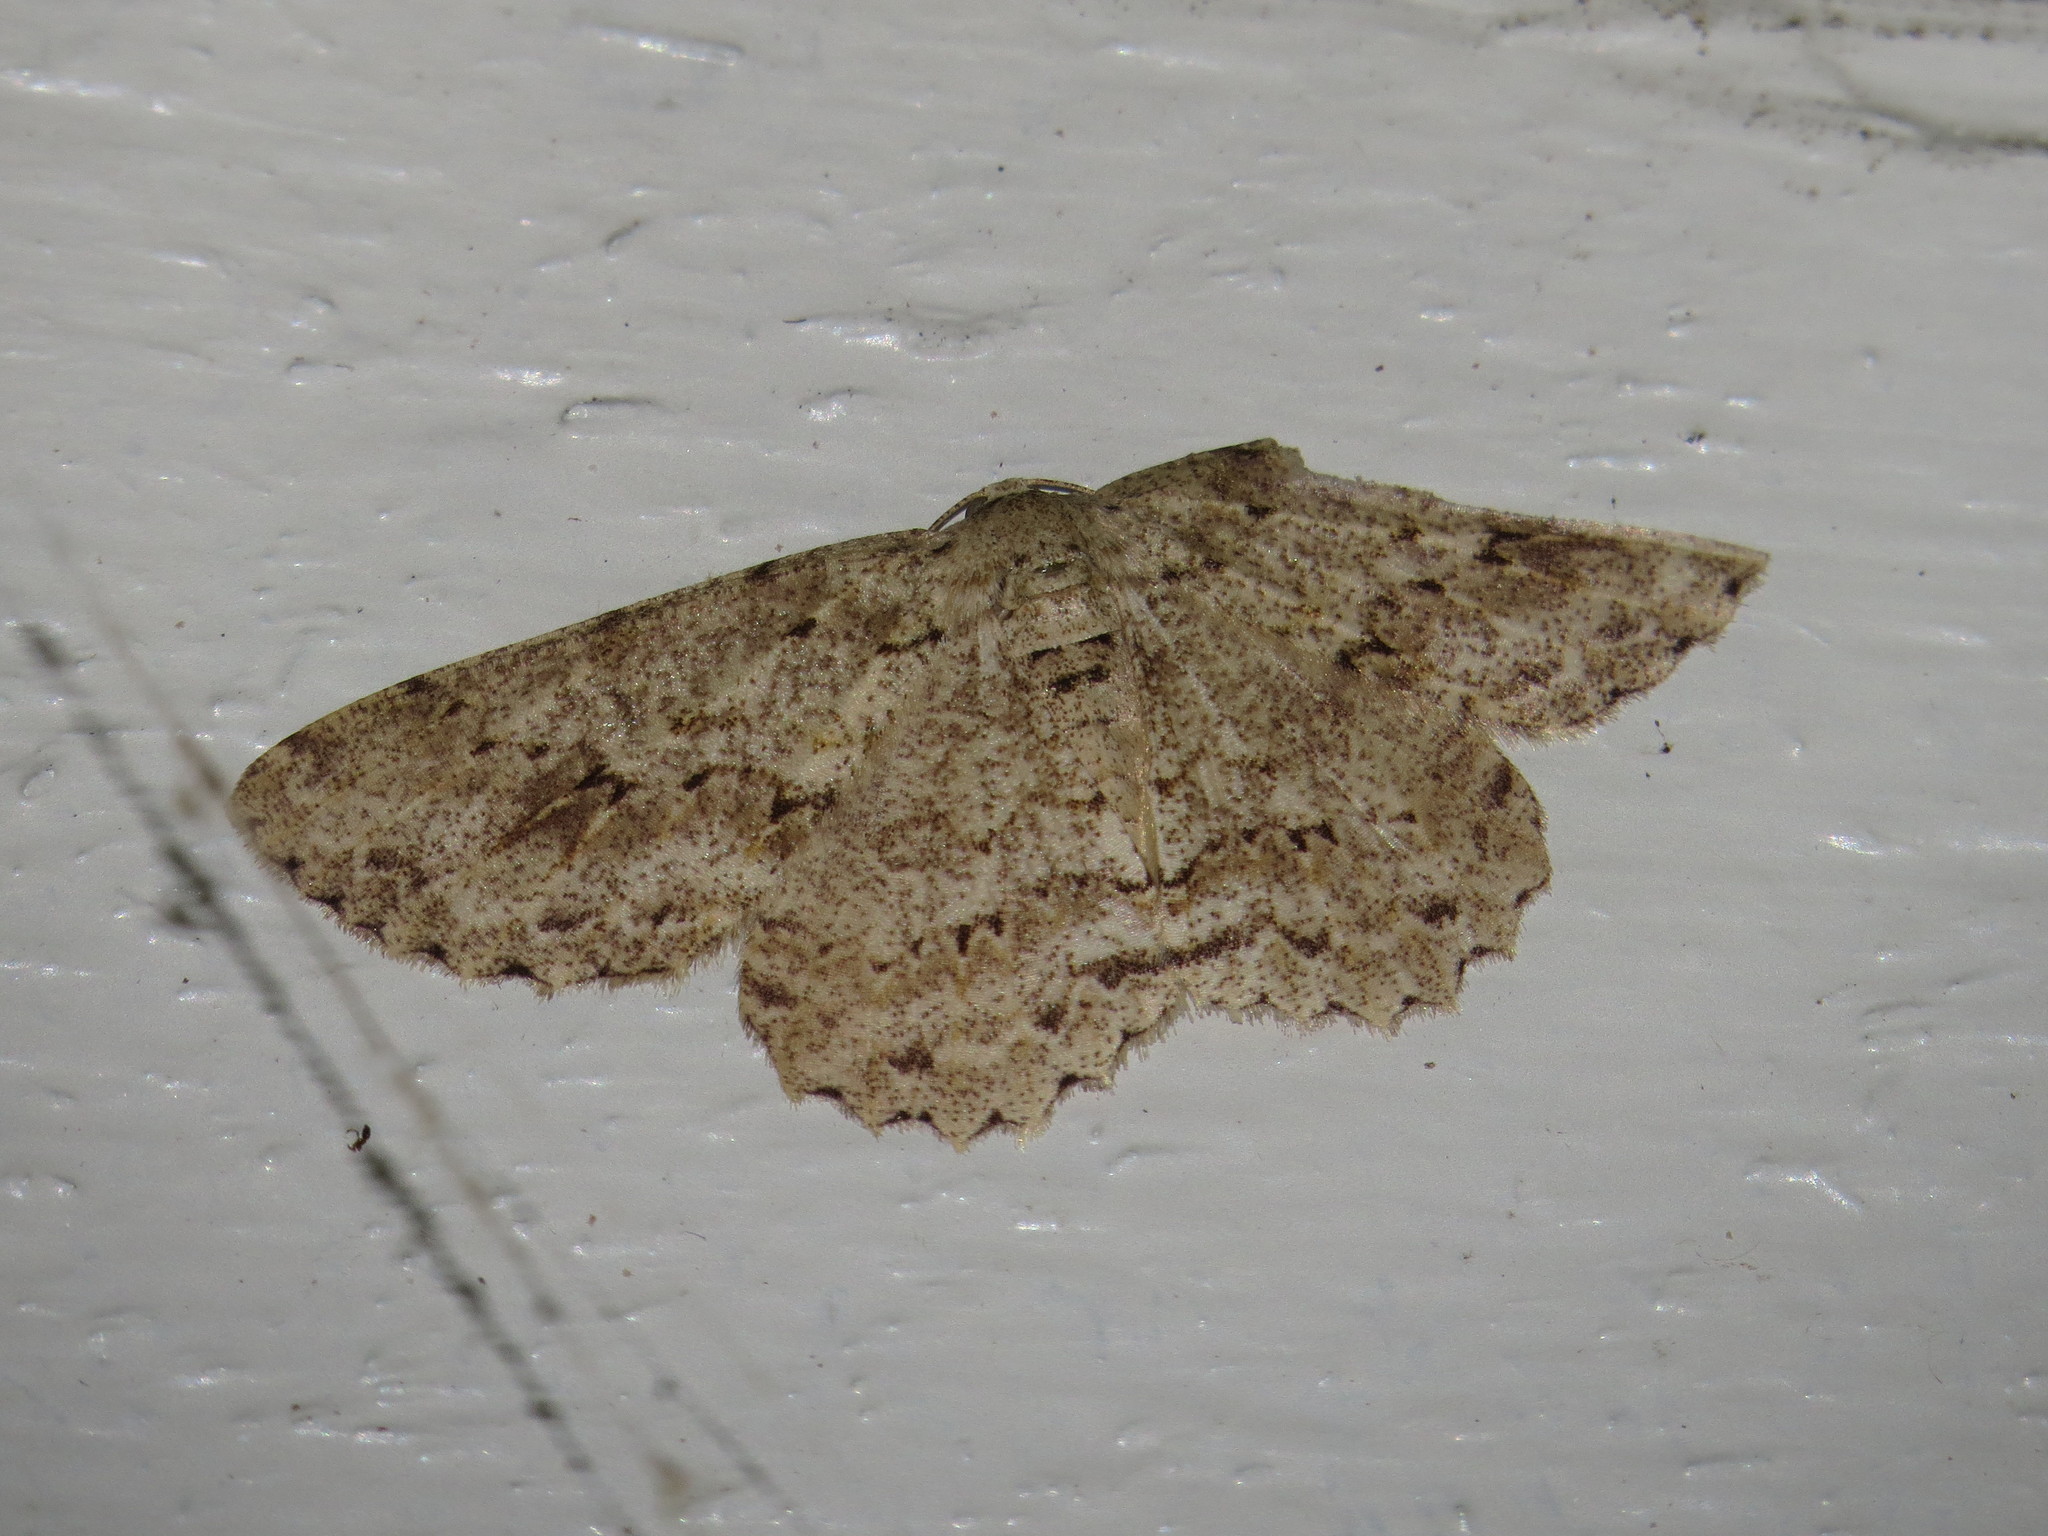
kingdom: Animalia
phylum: Arthropoda
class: Insecta
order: Lepidoptera
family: Geometridae
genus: Ectropis
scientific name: Ectropis bhurmitra
